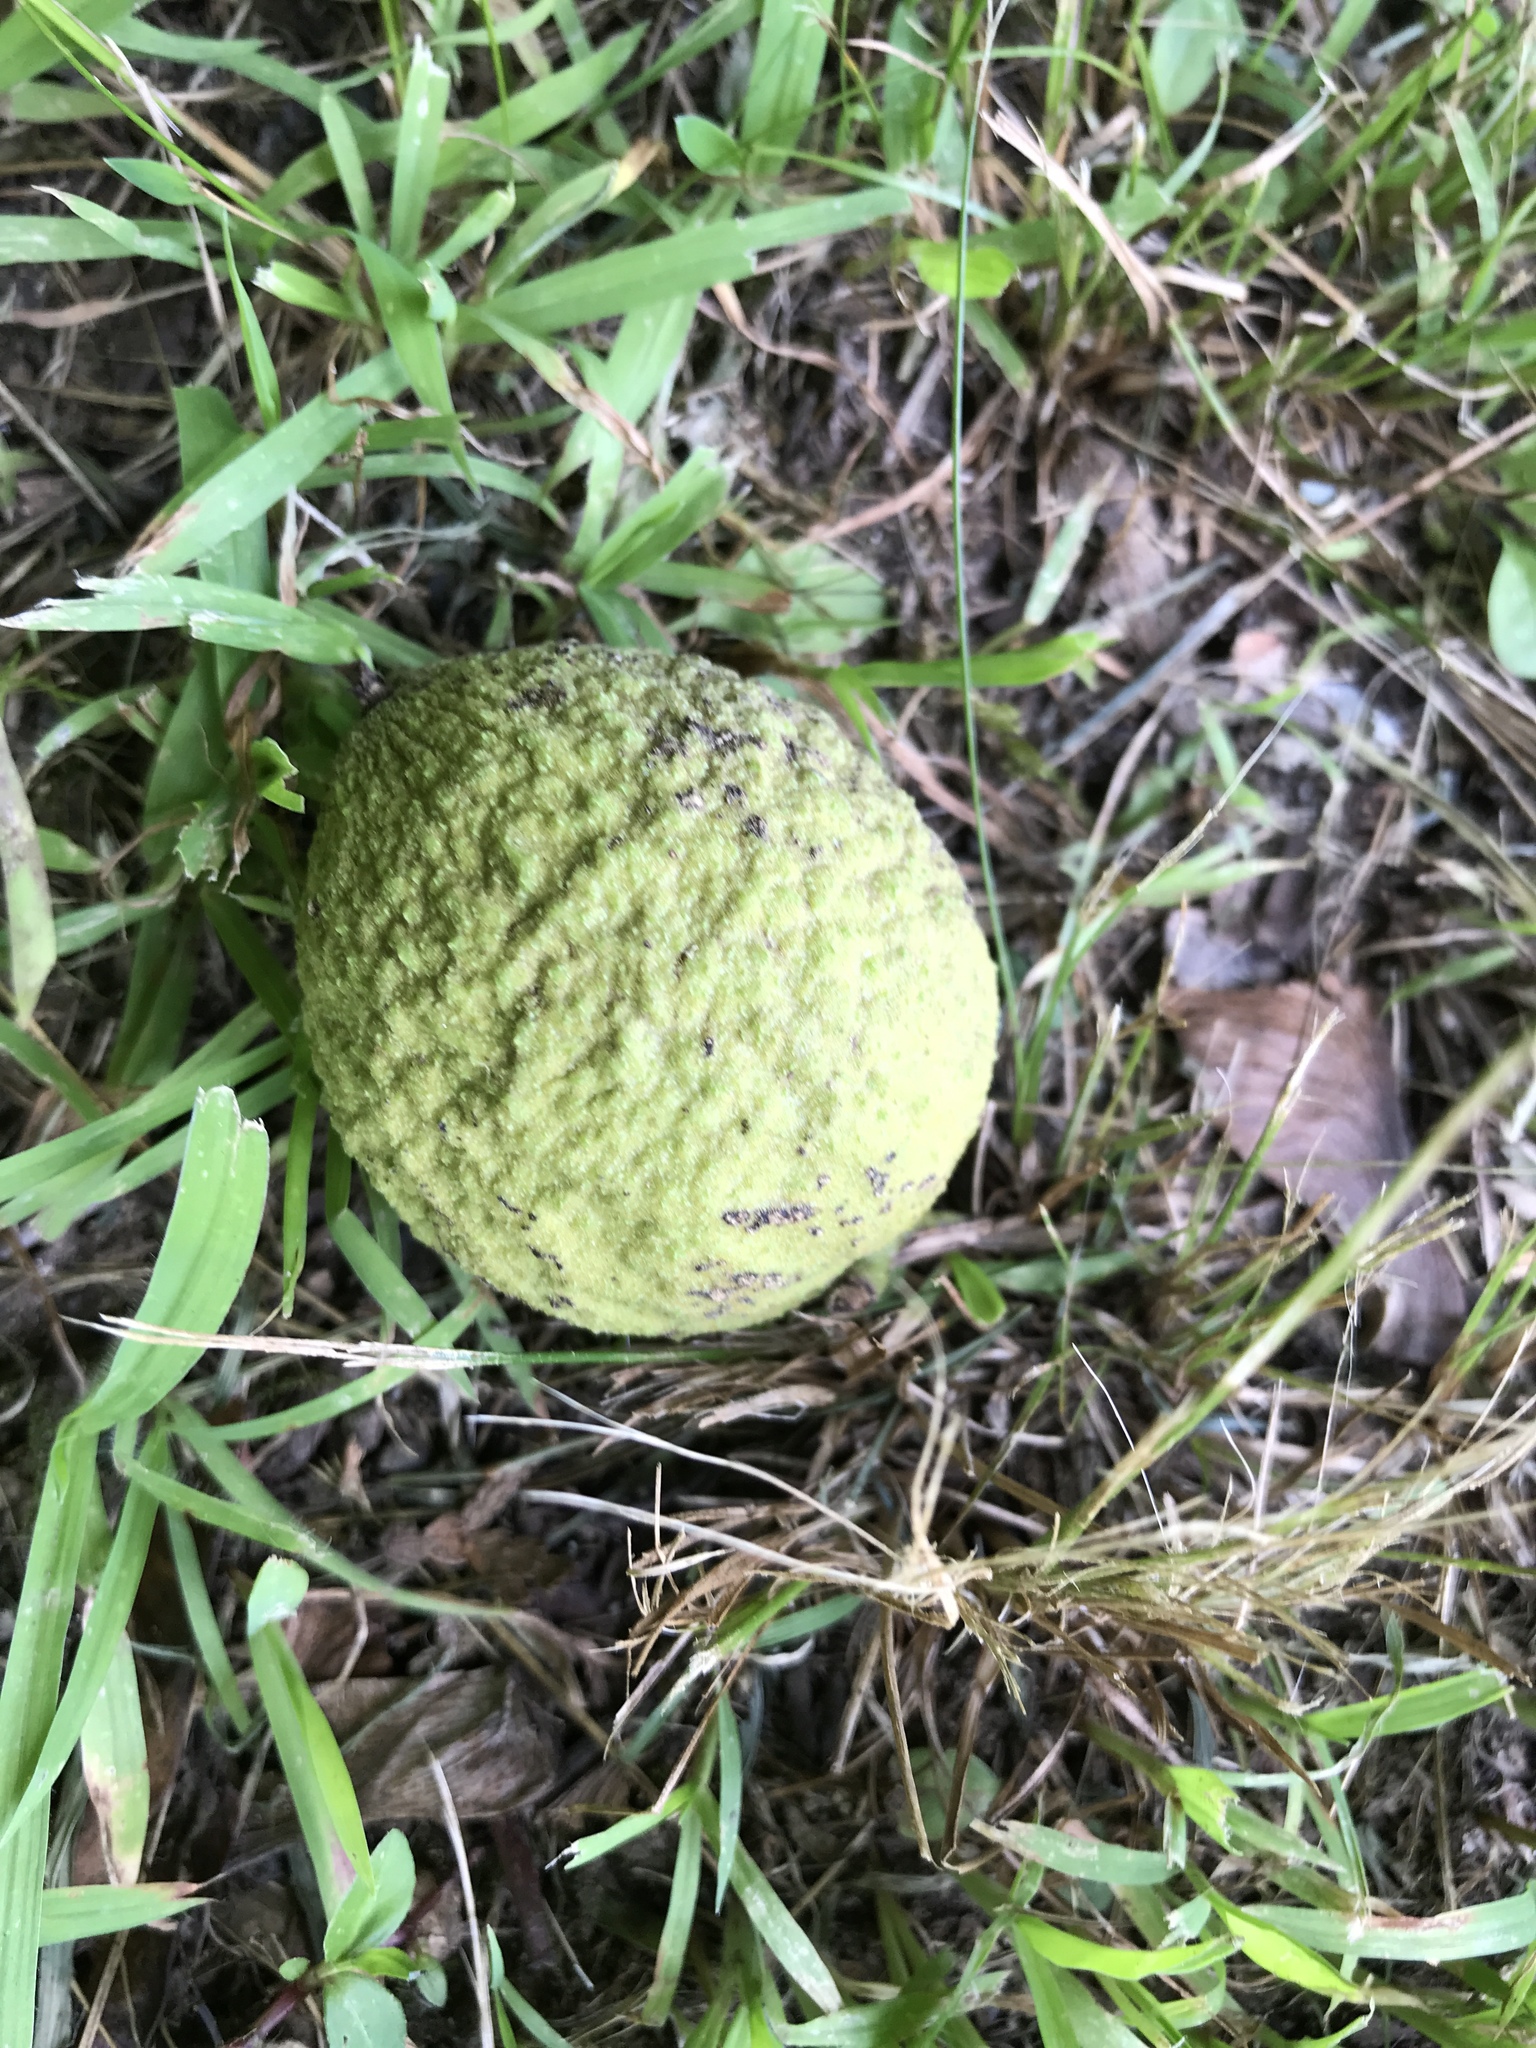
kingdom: Plantae
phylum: Tracheophyta
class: Magnoliopsida
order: Fagales
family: Juglandaceae
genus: Juglans
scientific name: Juglans nigra
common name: Black walnut
